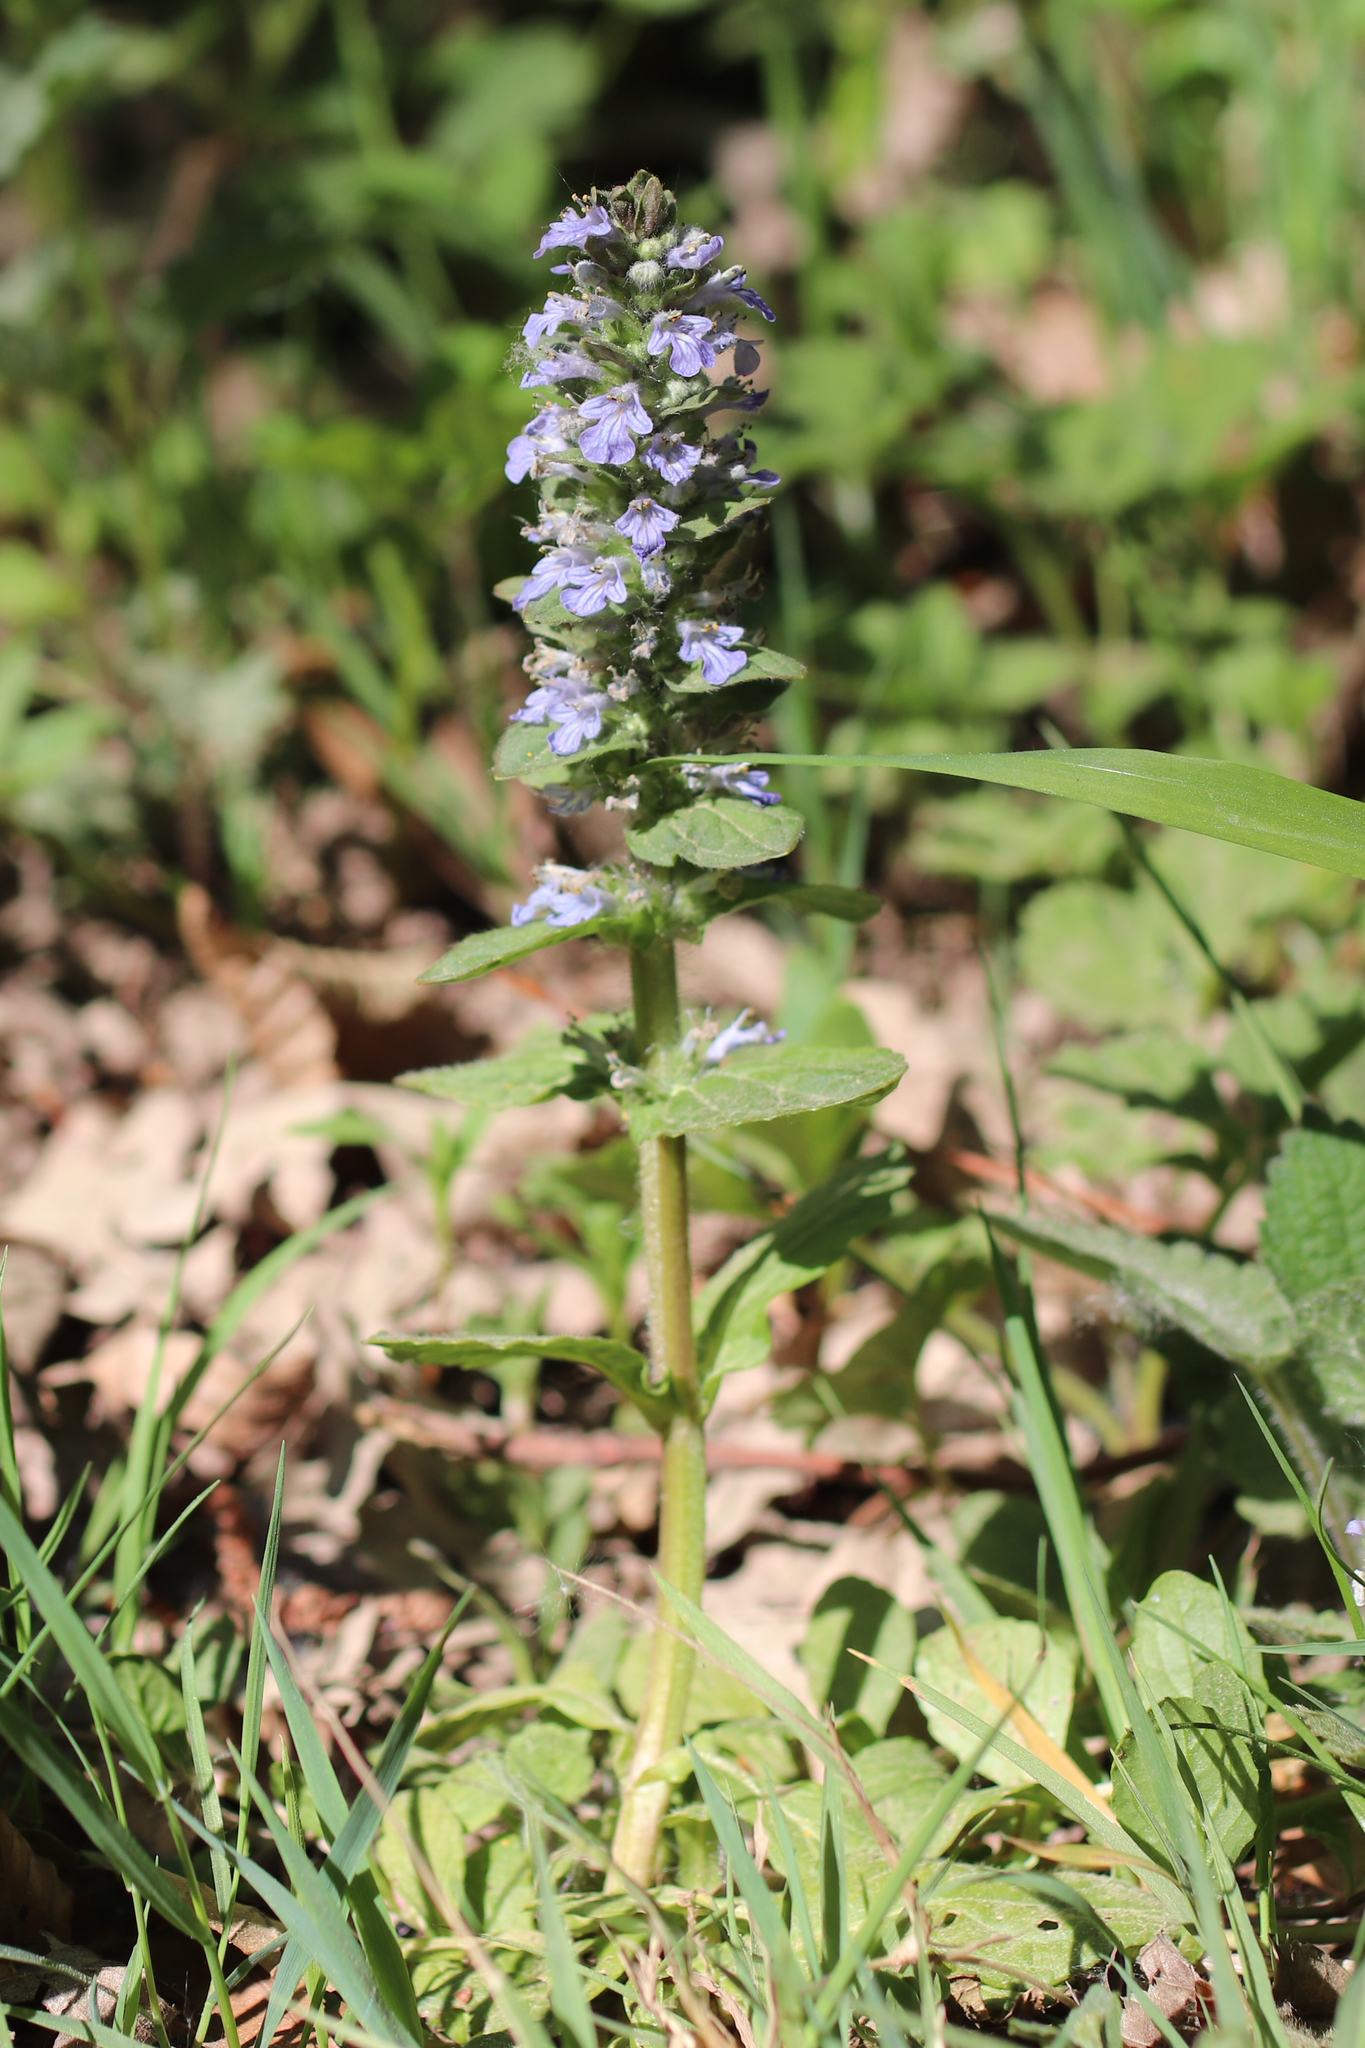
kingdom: Plantae
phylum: Tracheophyta
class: Magnoliopsida
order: Lamiales
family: Lamiaceae
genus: Ajuga
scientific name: Ajuga reptans
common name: Bugle
